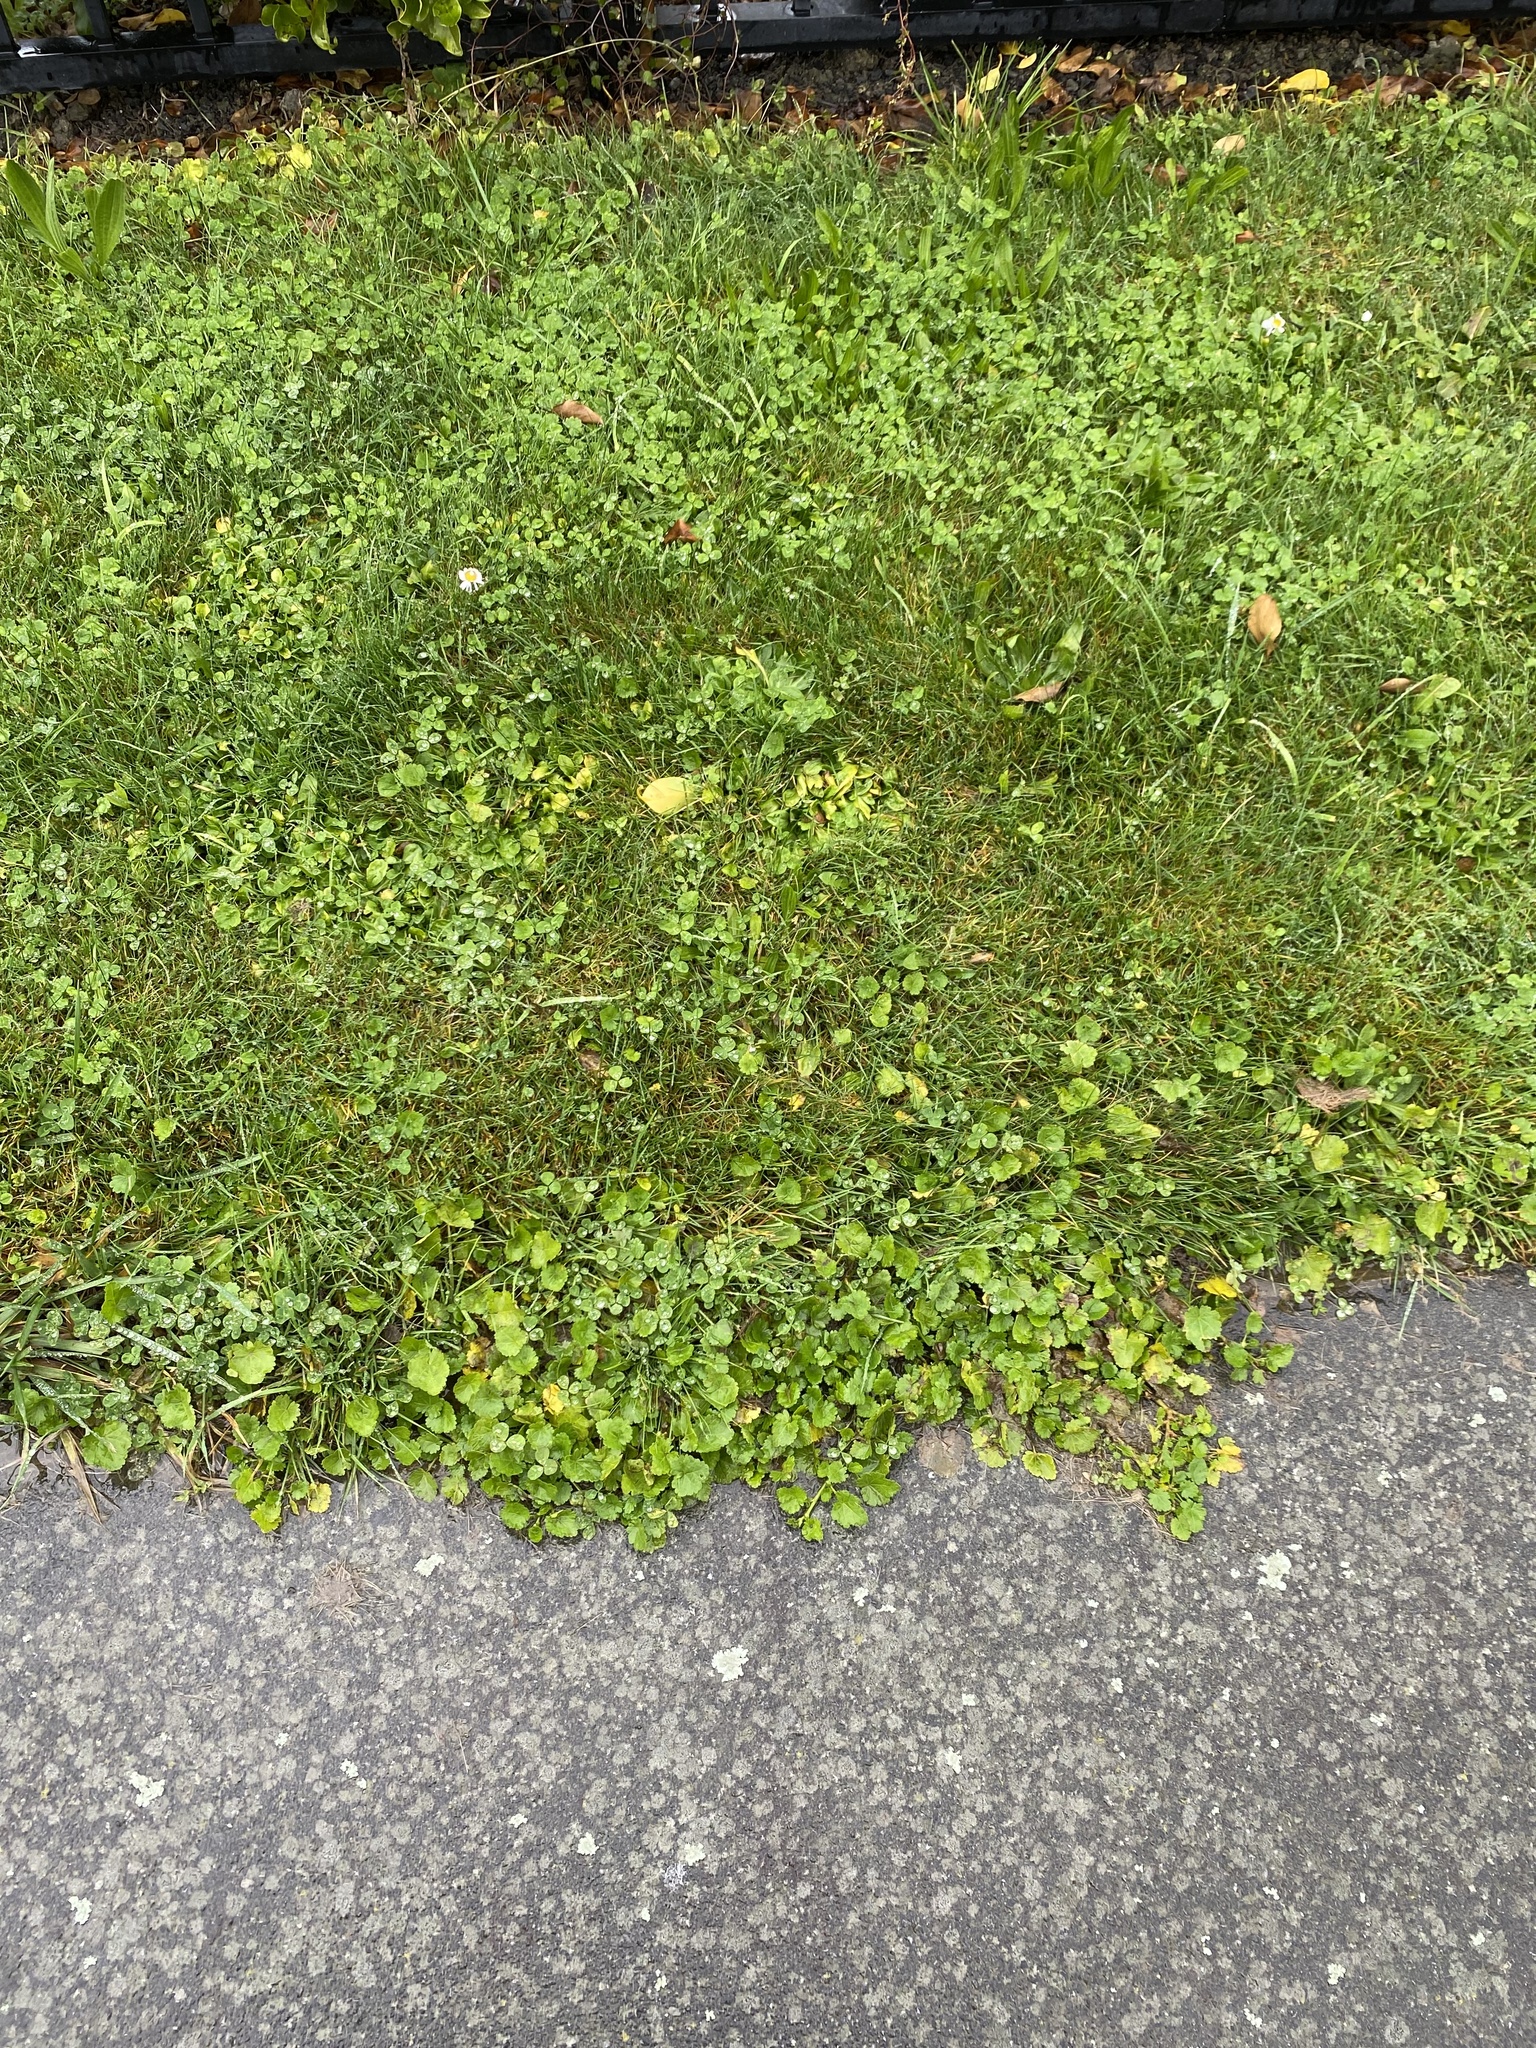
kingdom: Plantae
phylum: Tracheophyta
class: Magnoliopsida
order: Malvales
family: Malvaceae
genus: Modiola
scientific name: Modiola caroliniana
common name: Carolina bristlemallow
